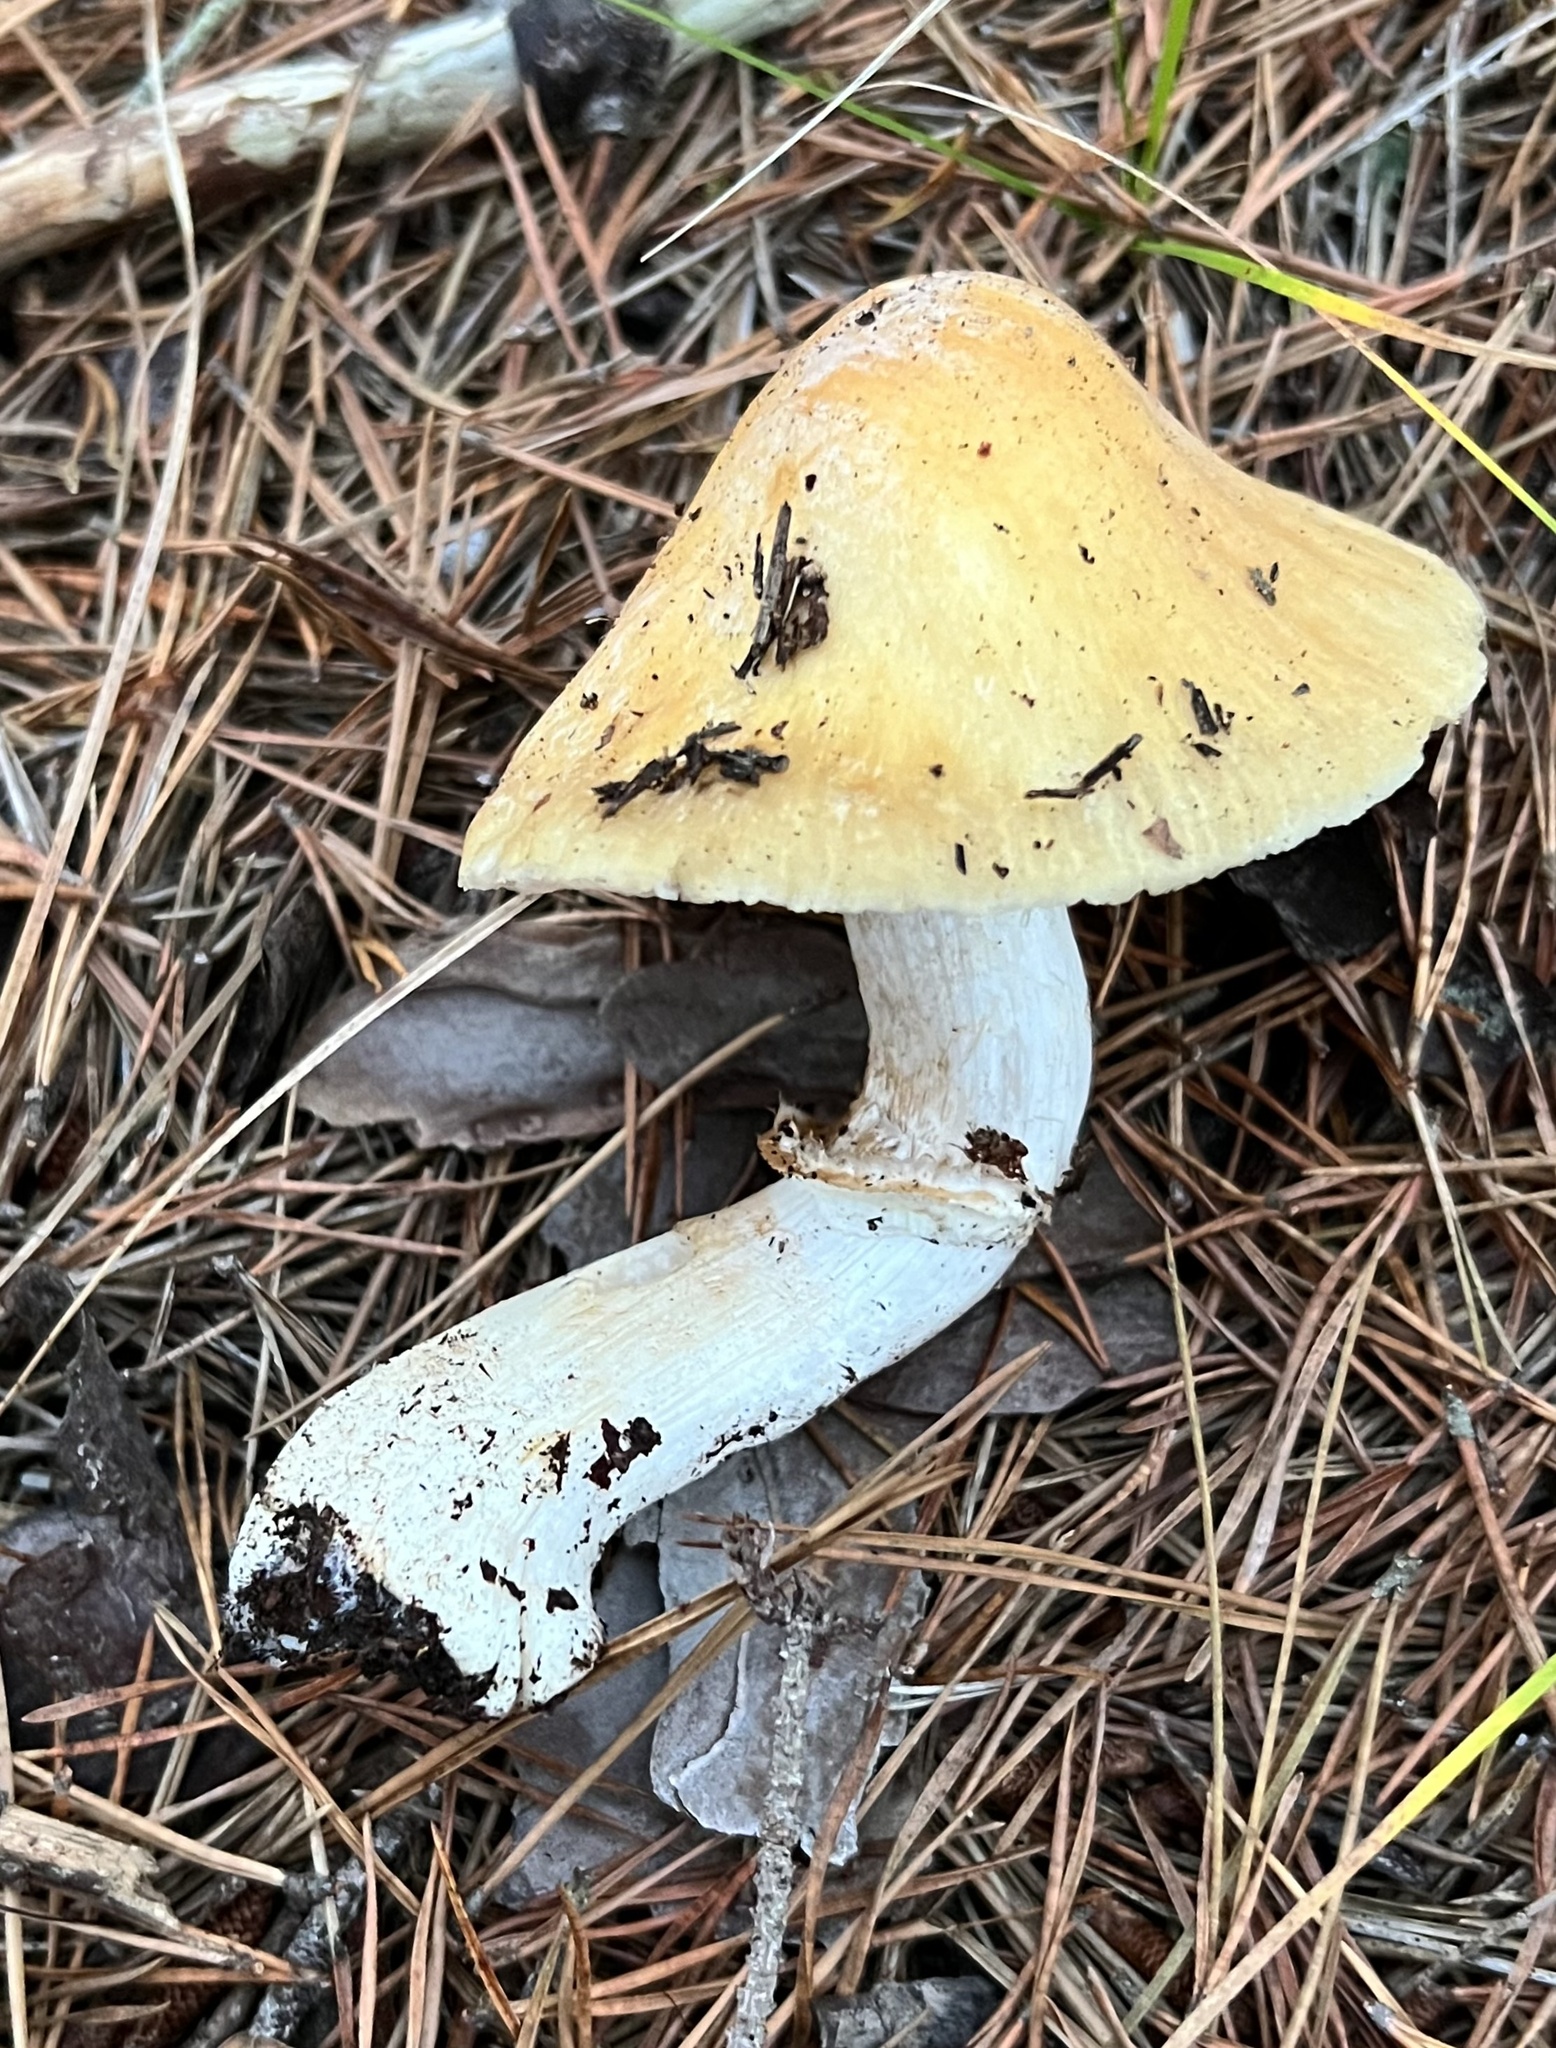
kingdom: Fungi
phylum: Basidiomycota
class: Agaricomycetes
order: Agaricales
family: Cortinariaceae
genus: Cortinarius
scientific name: Cortinarius caperatus
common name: The gypsy
